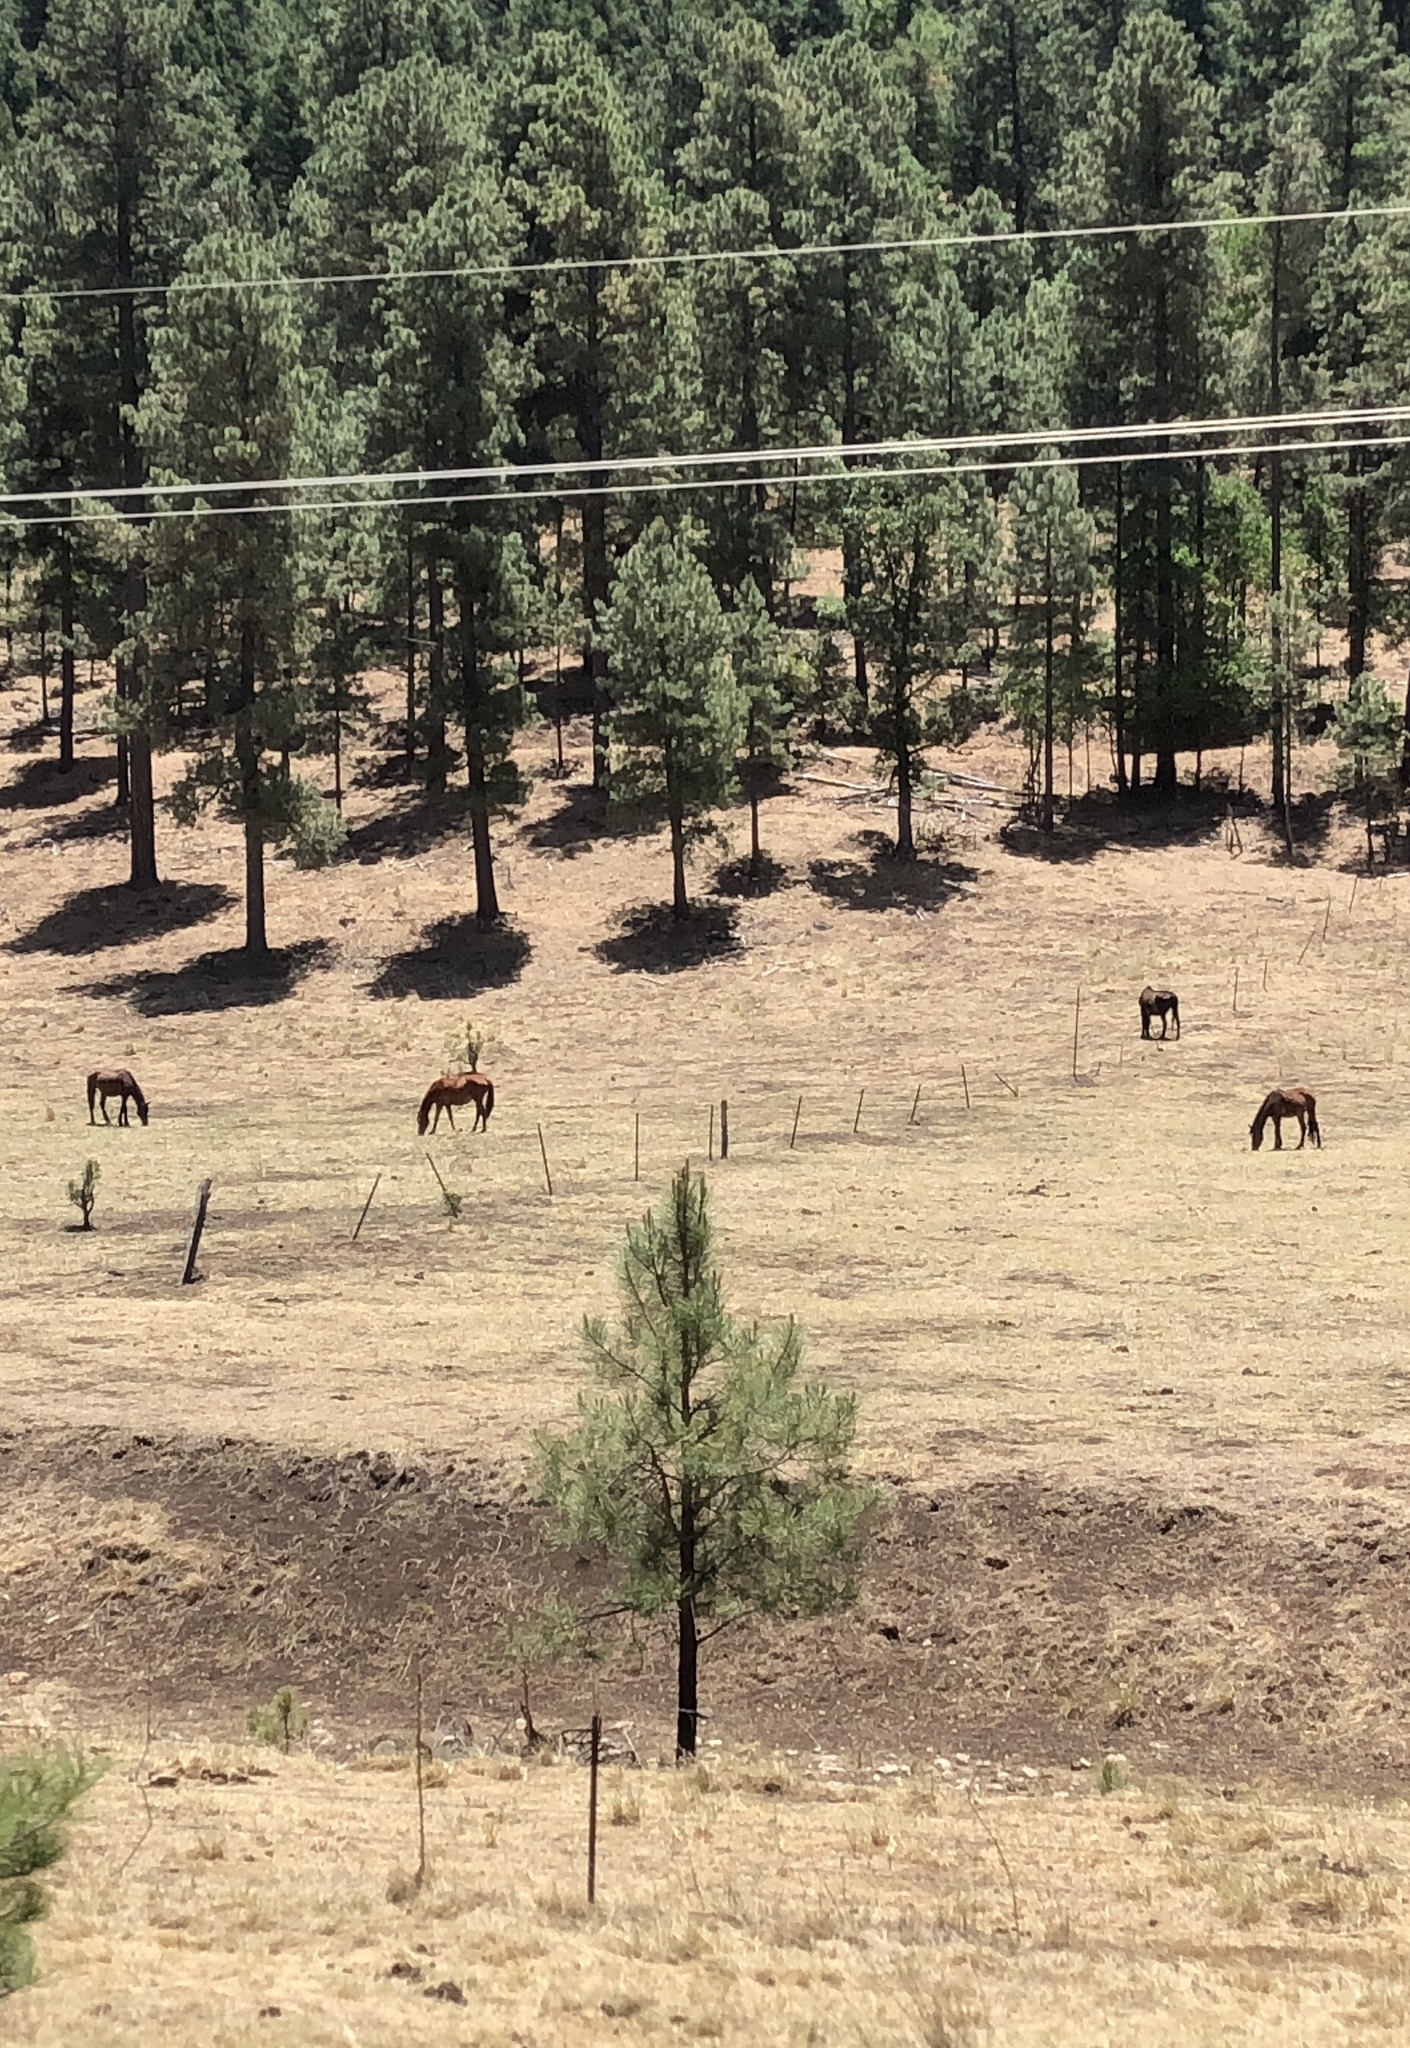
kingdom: Animalia
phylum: Chordata
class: Mammalia
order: Perissodactyla
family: Equidae
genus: Equus
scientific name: Equus caballus
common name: Horse
